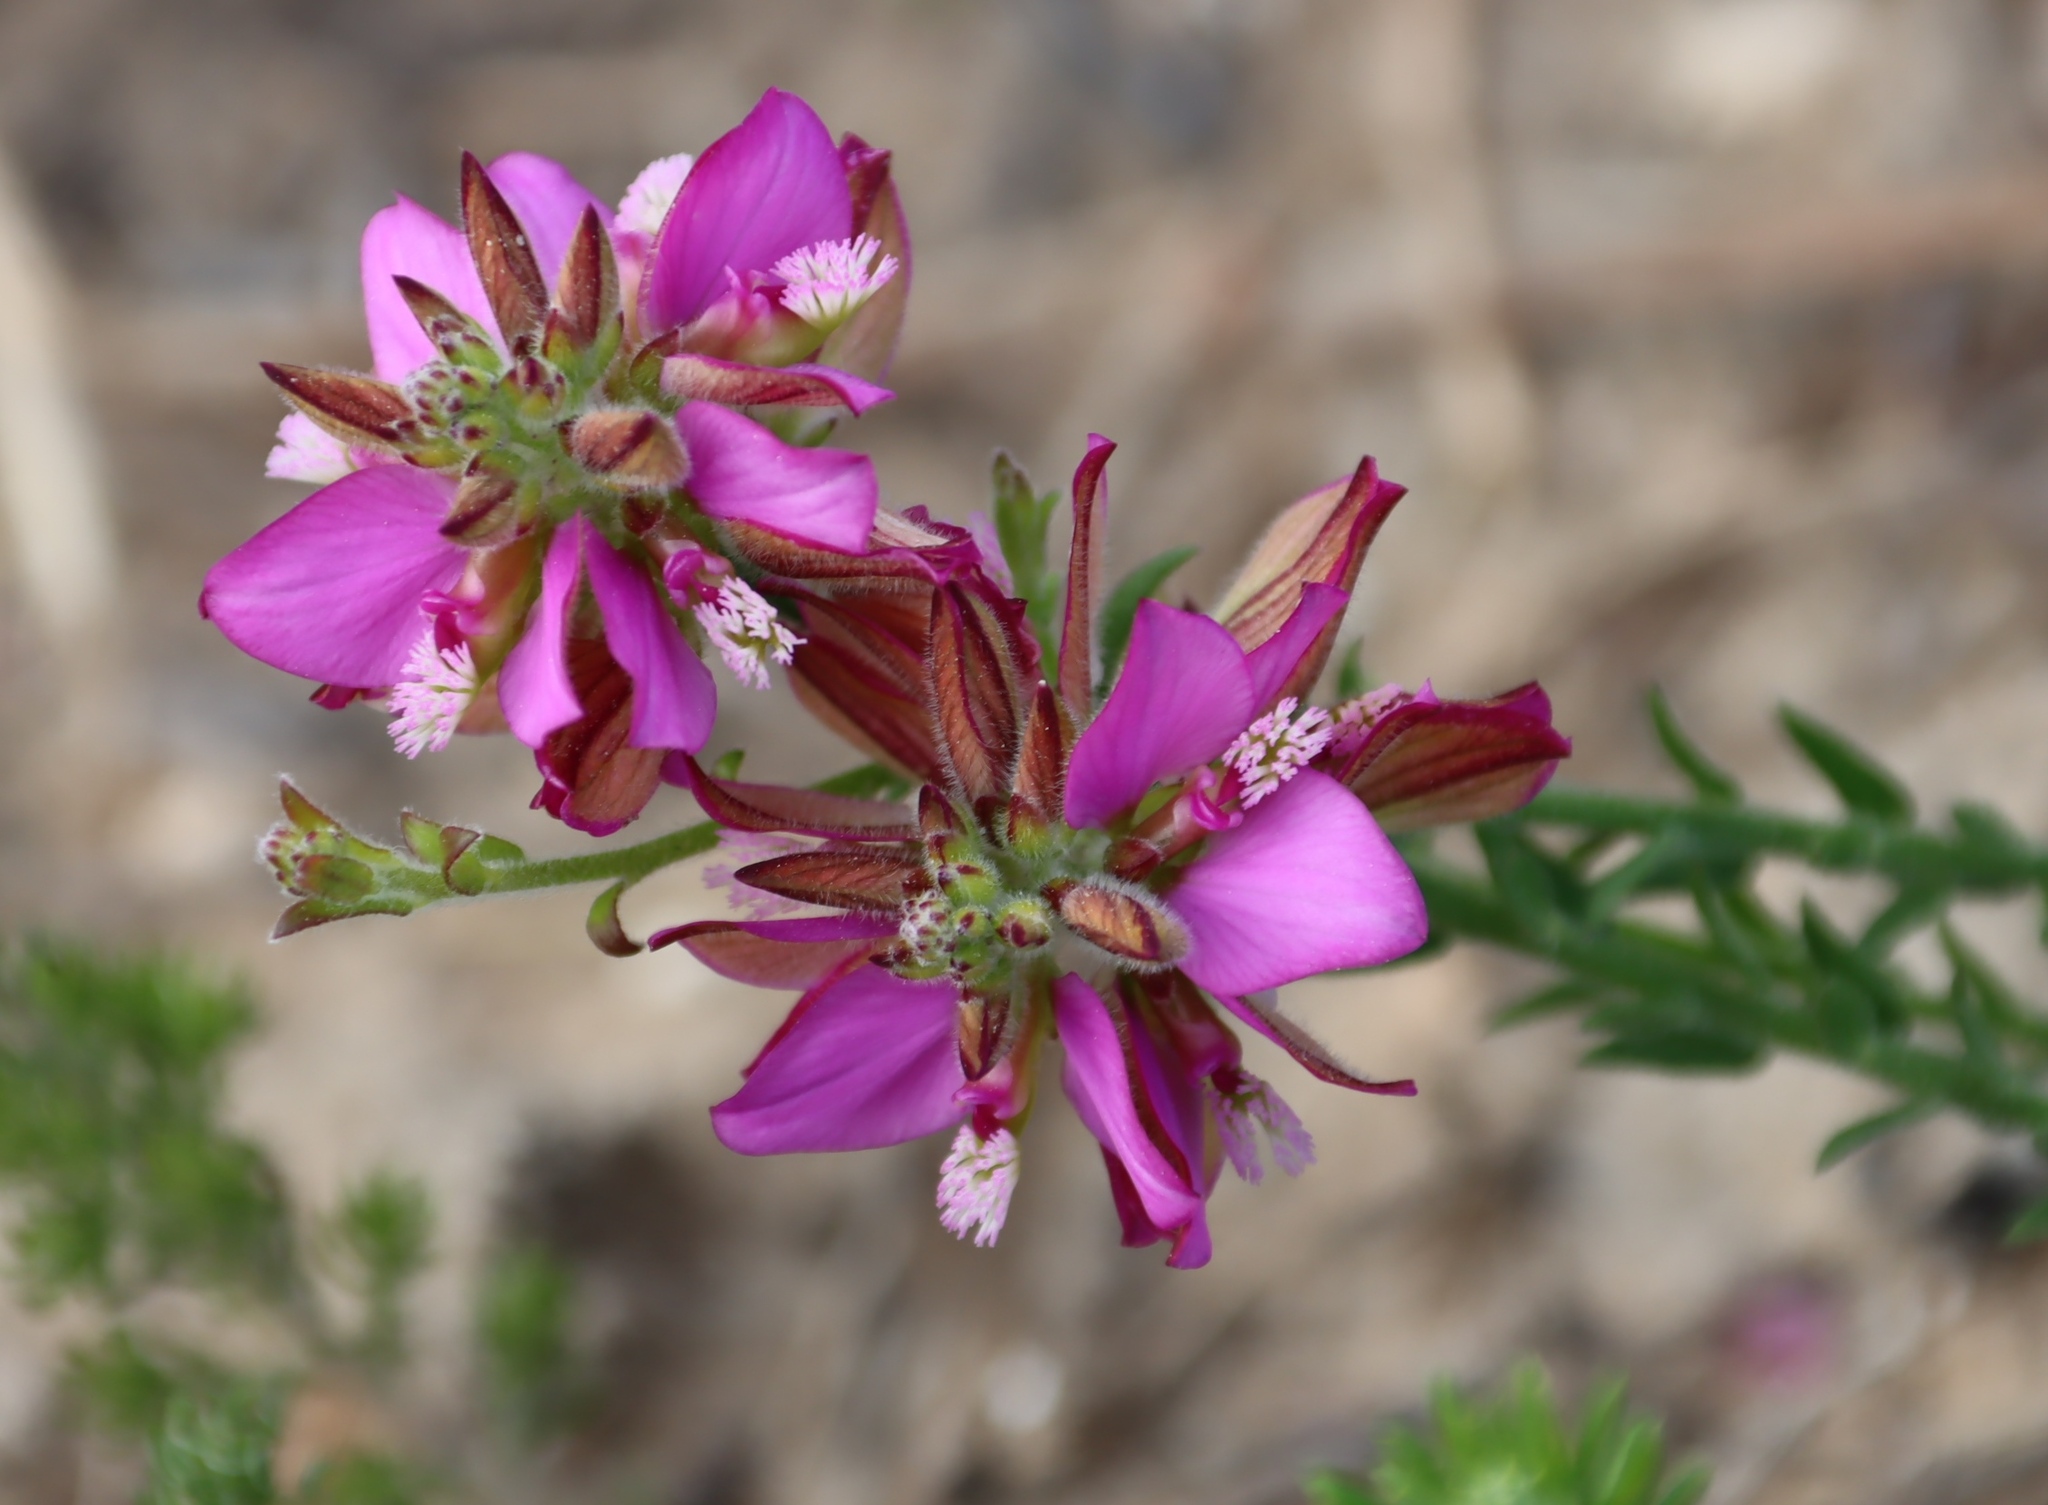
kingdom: Plantae
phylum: Tracheophyta
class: Magnoliopsida
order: Fabales
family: Polygalaceae
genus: Polygala
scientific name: Polygala pubiflora
